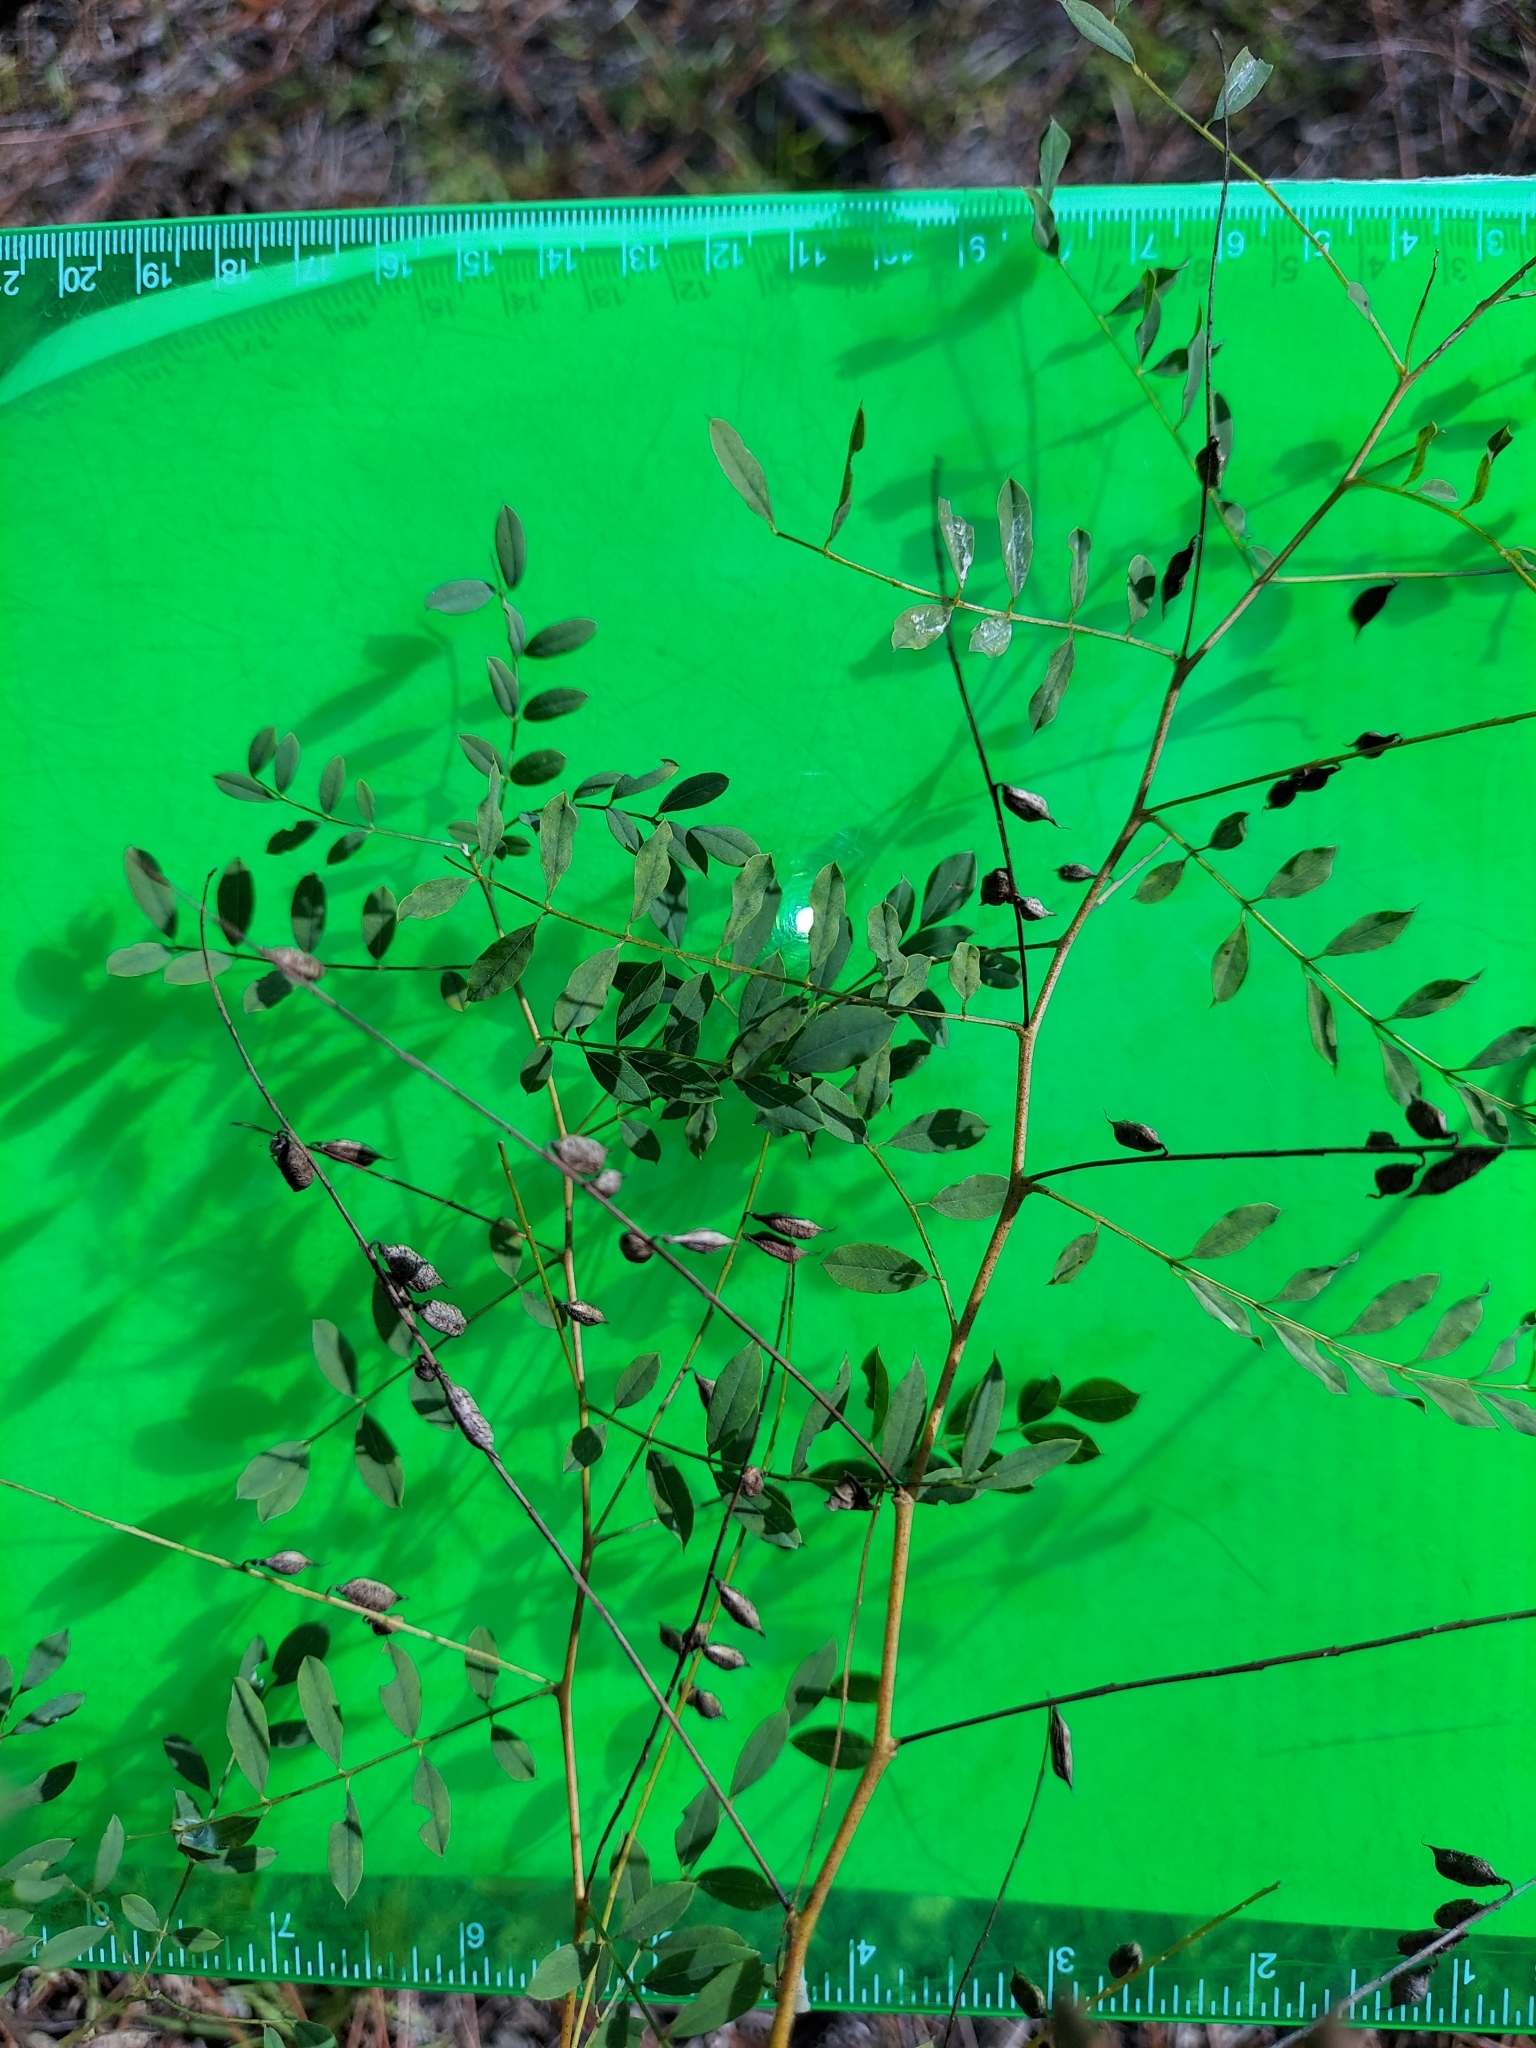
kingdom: Plantae
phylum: Tracheophyta
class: Magnoliopsida
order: Fabales
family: Fabaceae
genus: Indigofera
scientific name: Indigofera caroliniana
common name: Wild indigo
